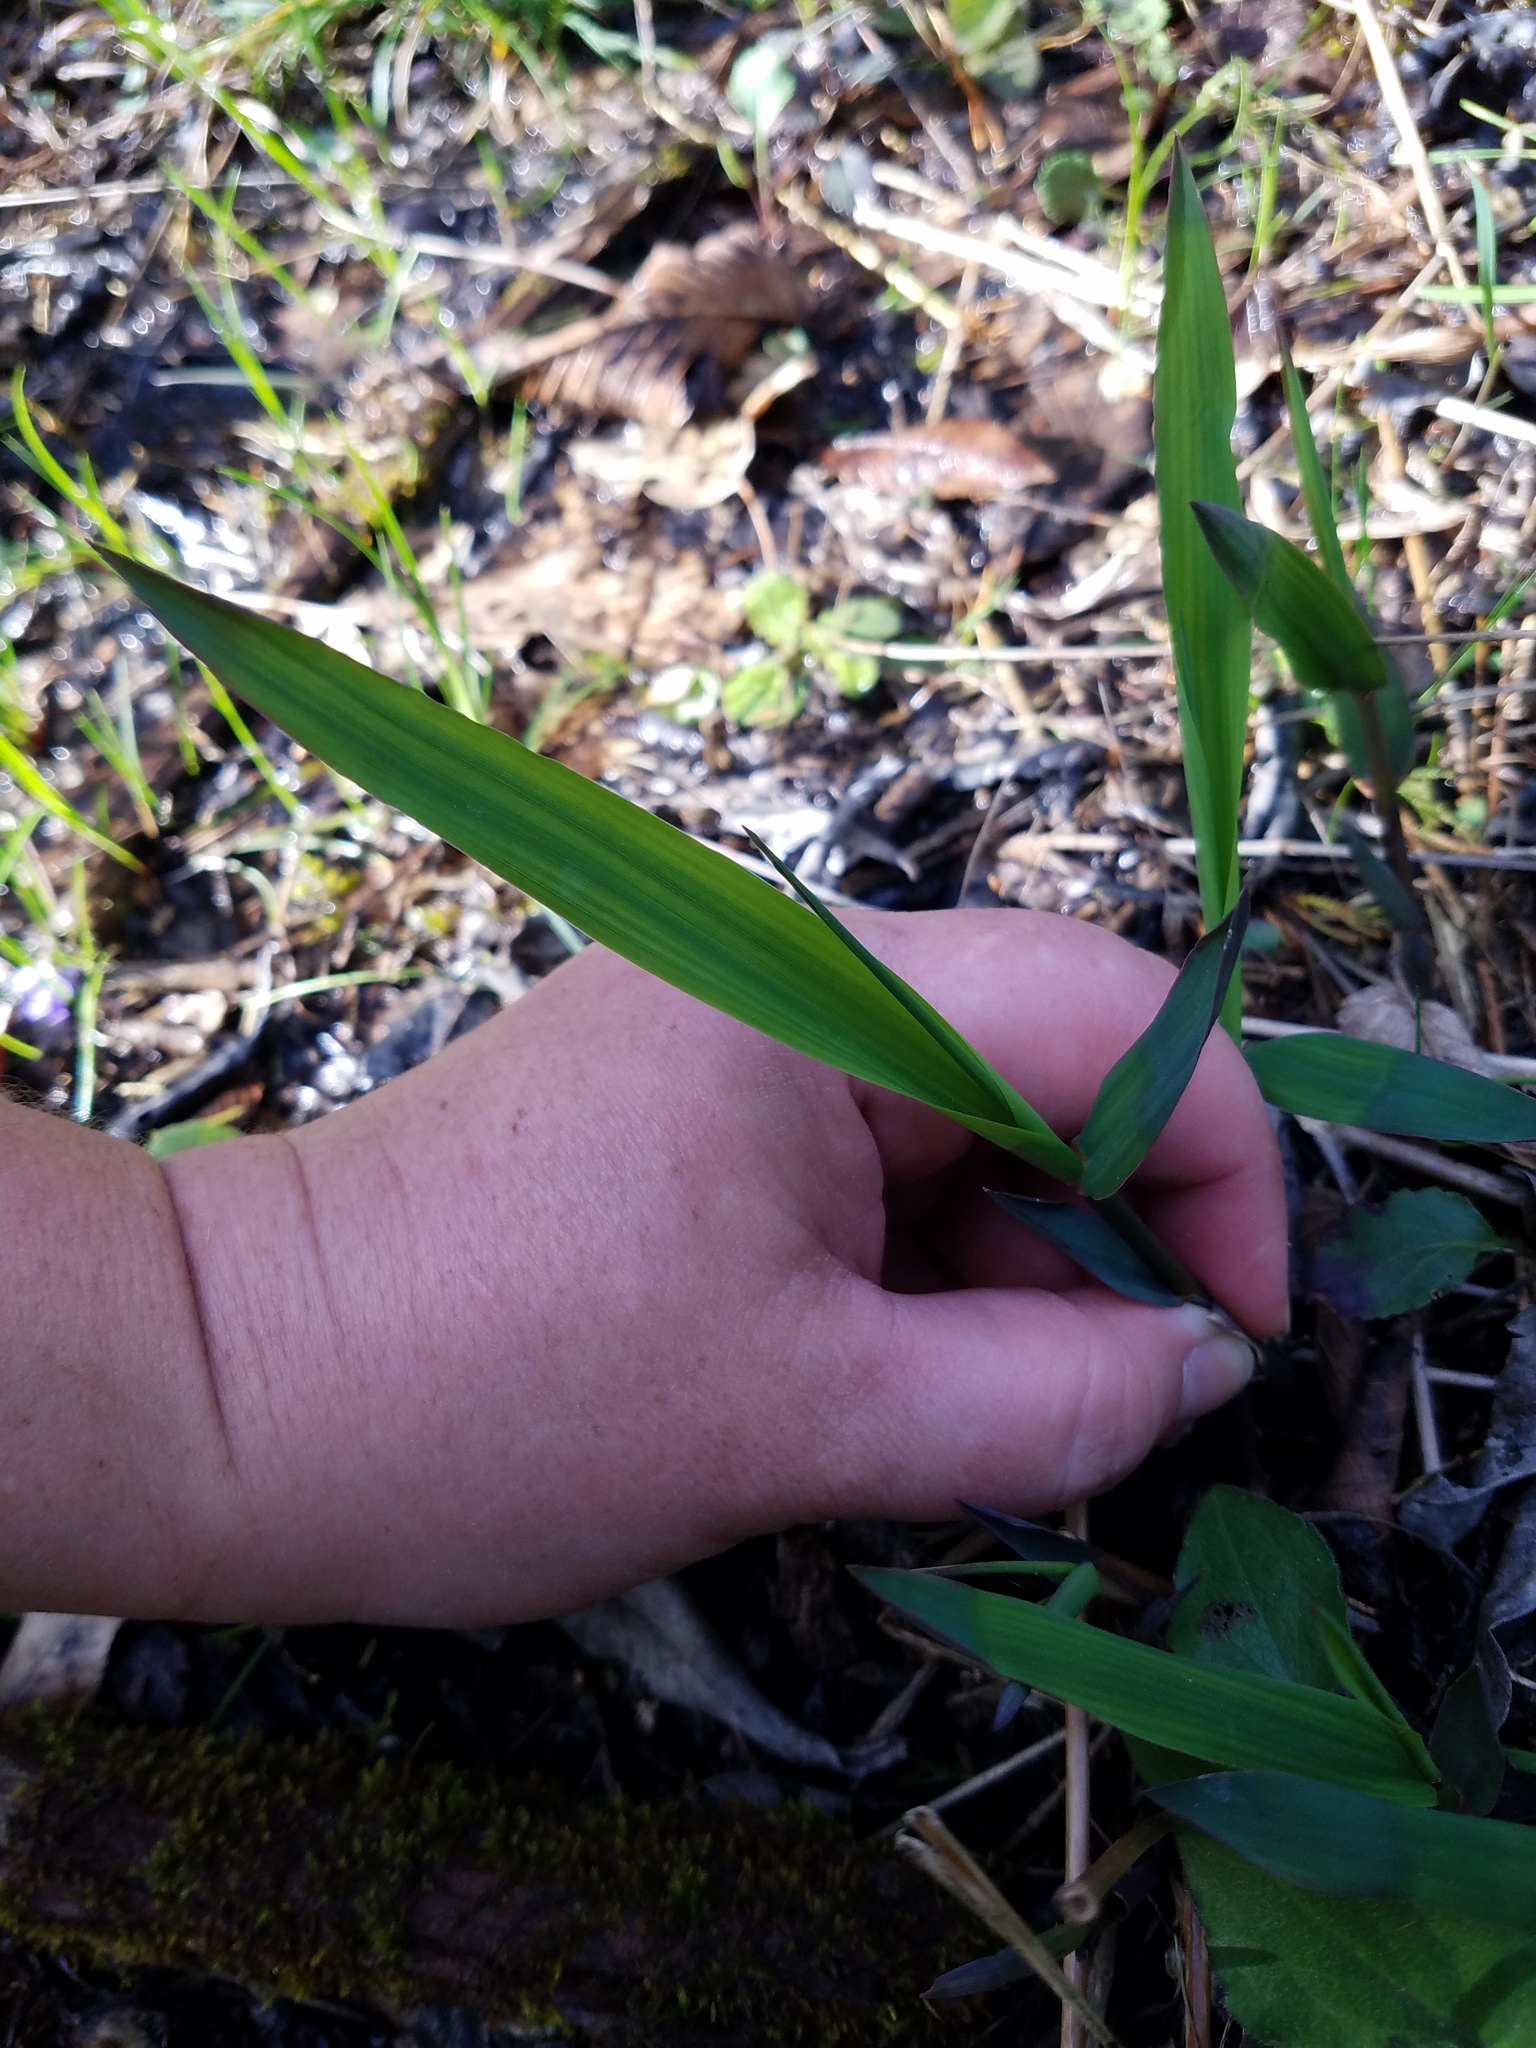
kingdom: Plantae
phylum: Tracheophyta
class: Liliopsida
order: Poales
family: Poaceae
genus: Chasmanthium
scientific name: Chasmanthium latifolium
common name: Broad-leaved chasmanthium
